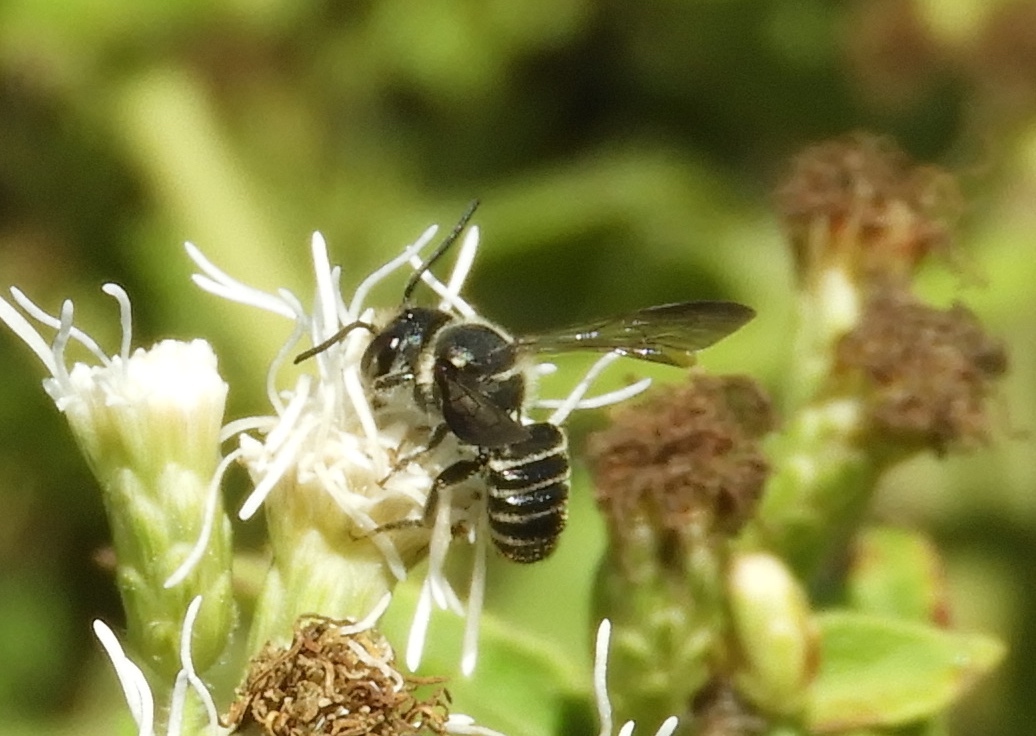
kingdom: Animalia
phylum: Arthropoda
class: Insecta
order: Hymenoptera
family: Megachilidae
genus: Megachile
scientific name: Megachile
